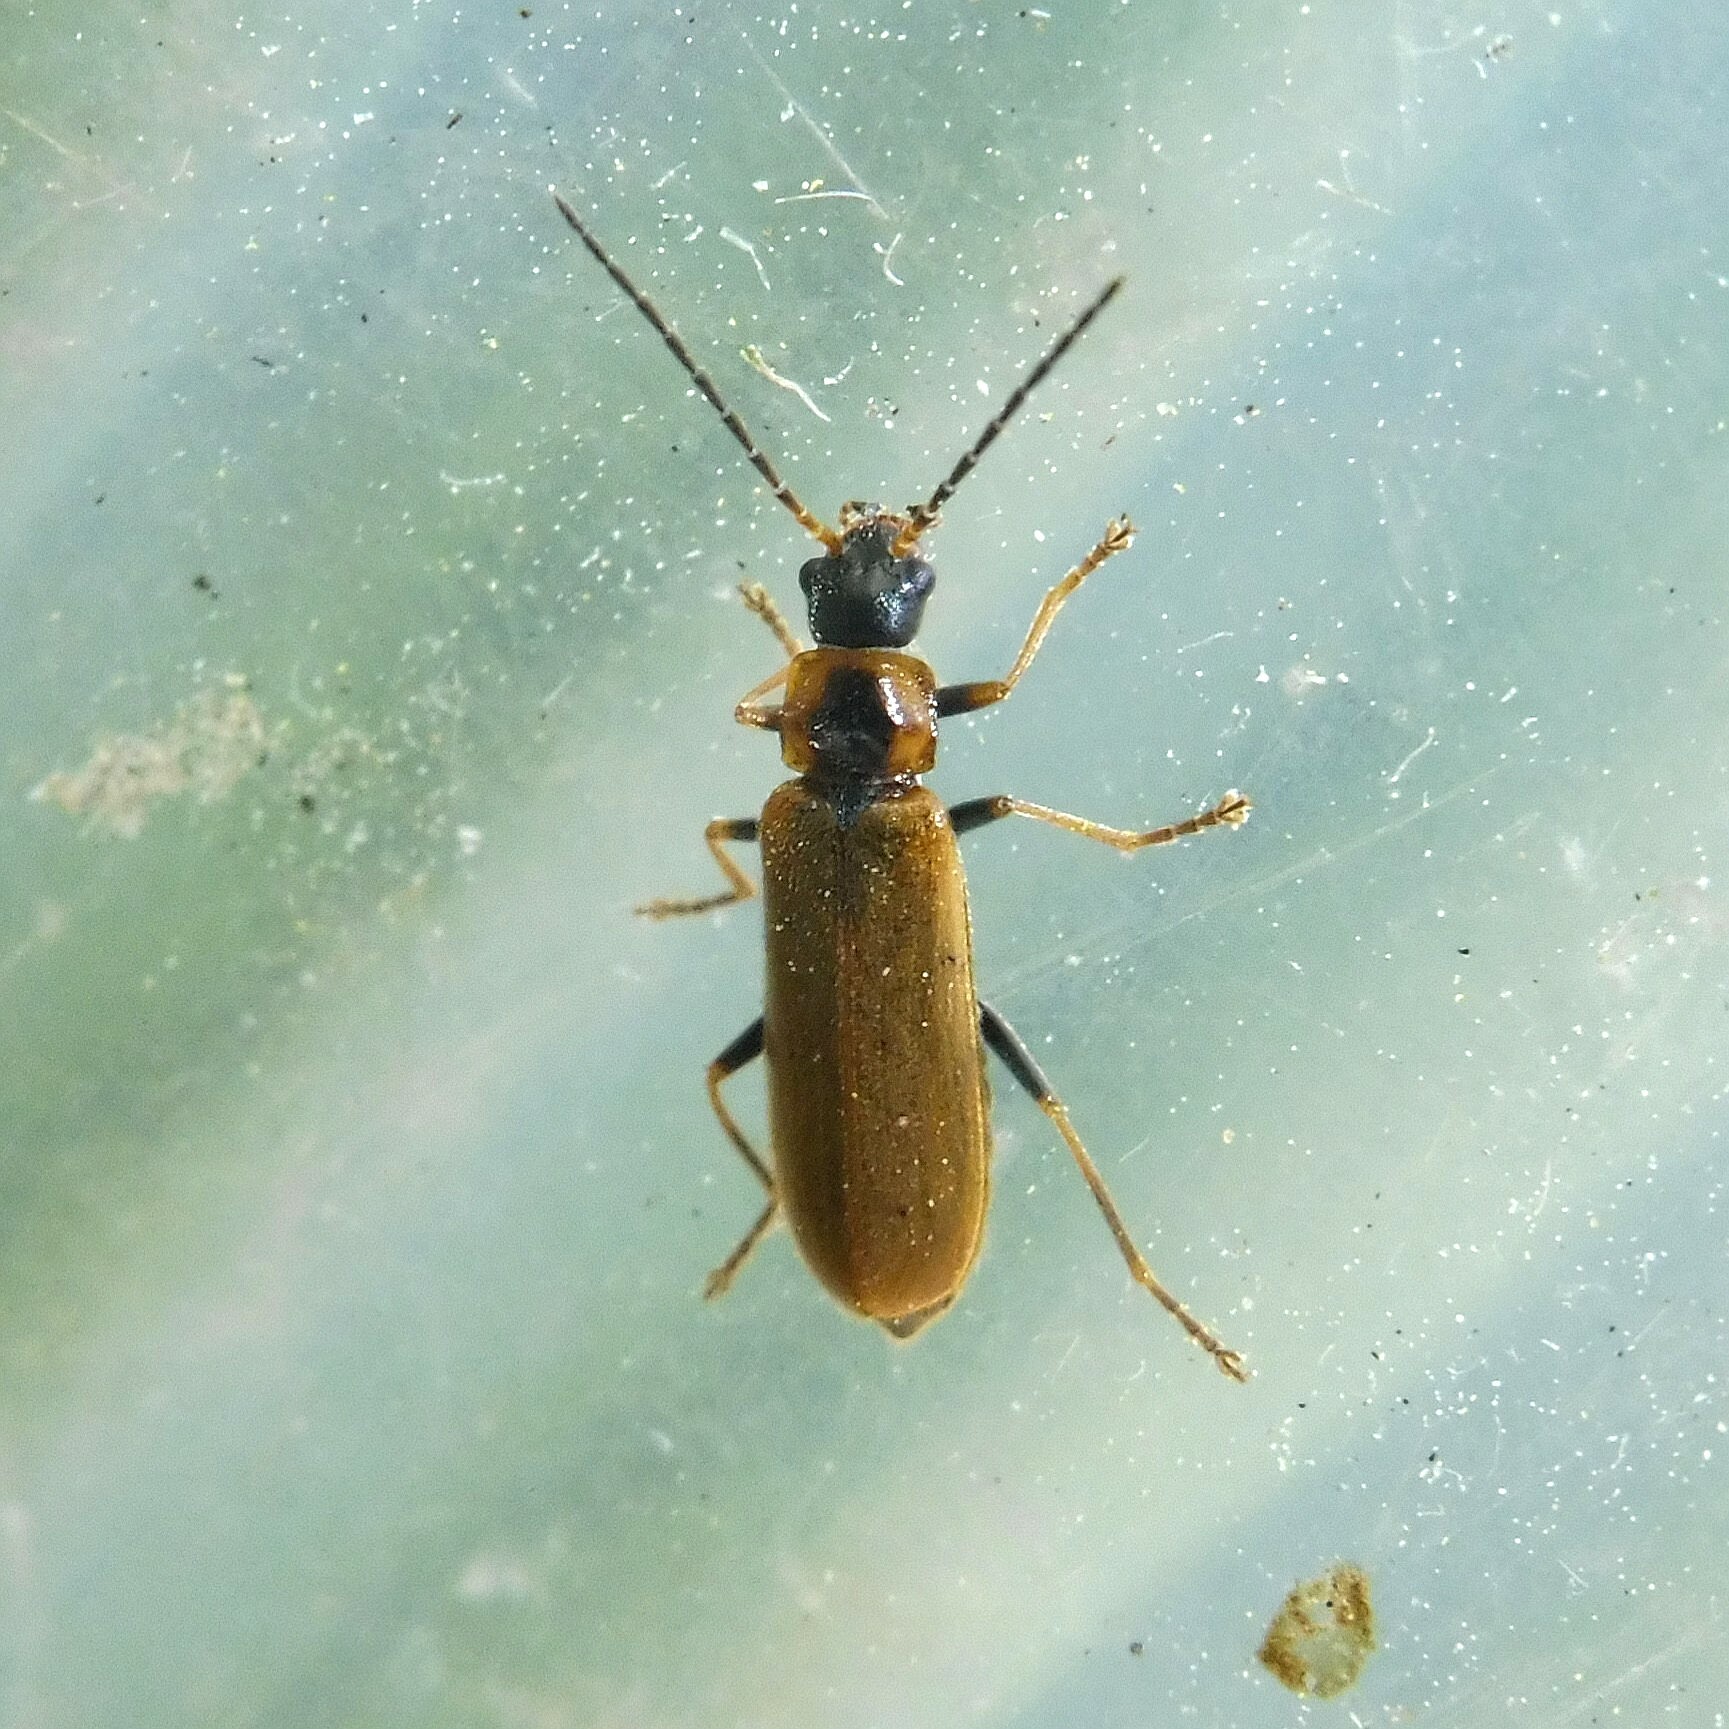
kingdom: Animalia
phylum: Arthropoda
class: Insecta
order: Coleoptera
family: Cantharidae
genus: Rhagonycha
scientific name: Rhagonycha nigriventris
